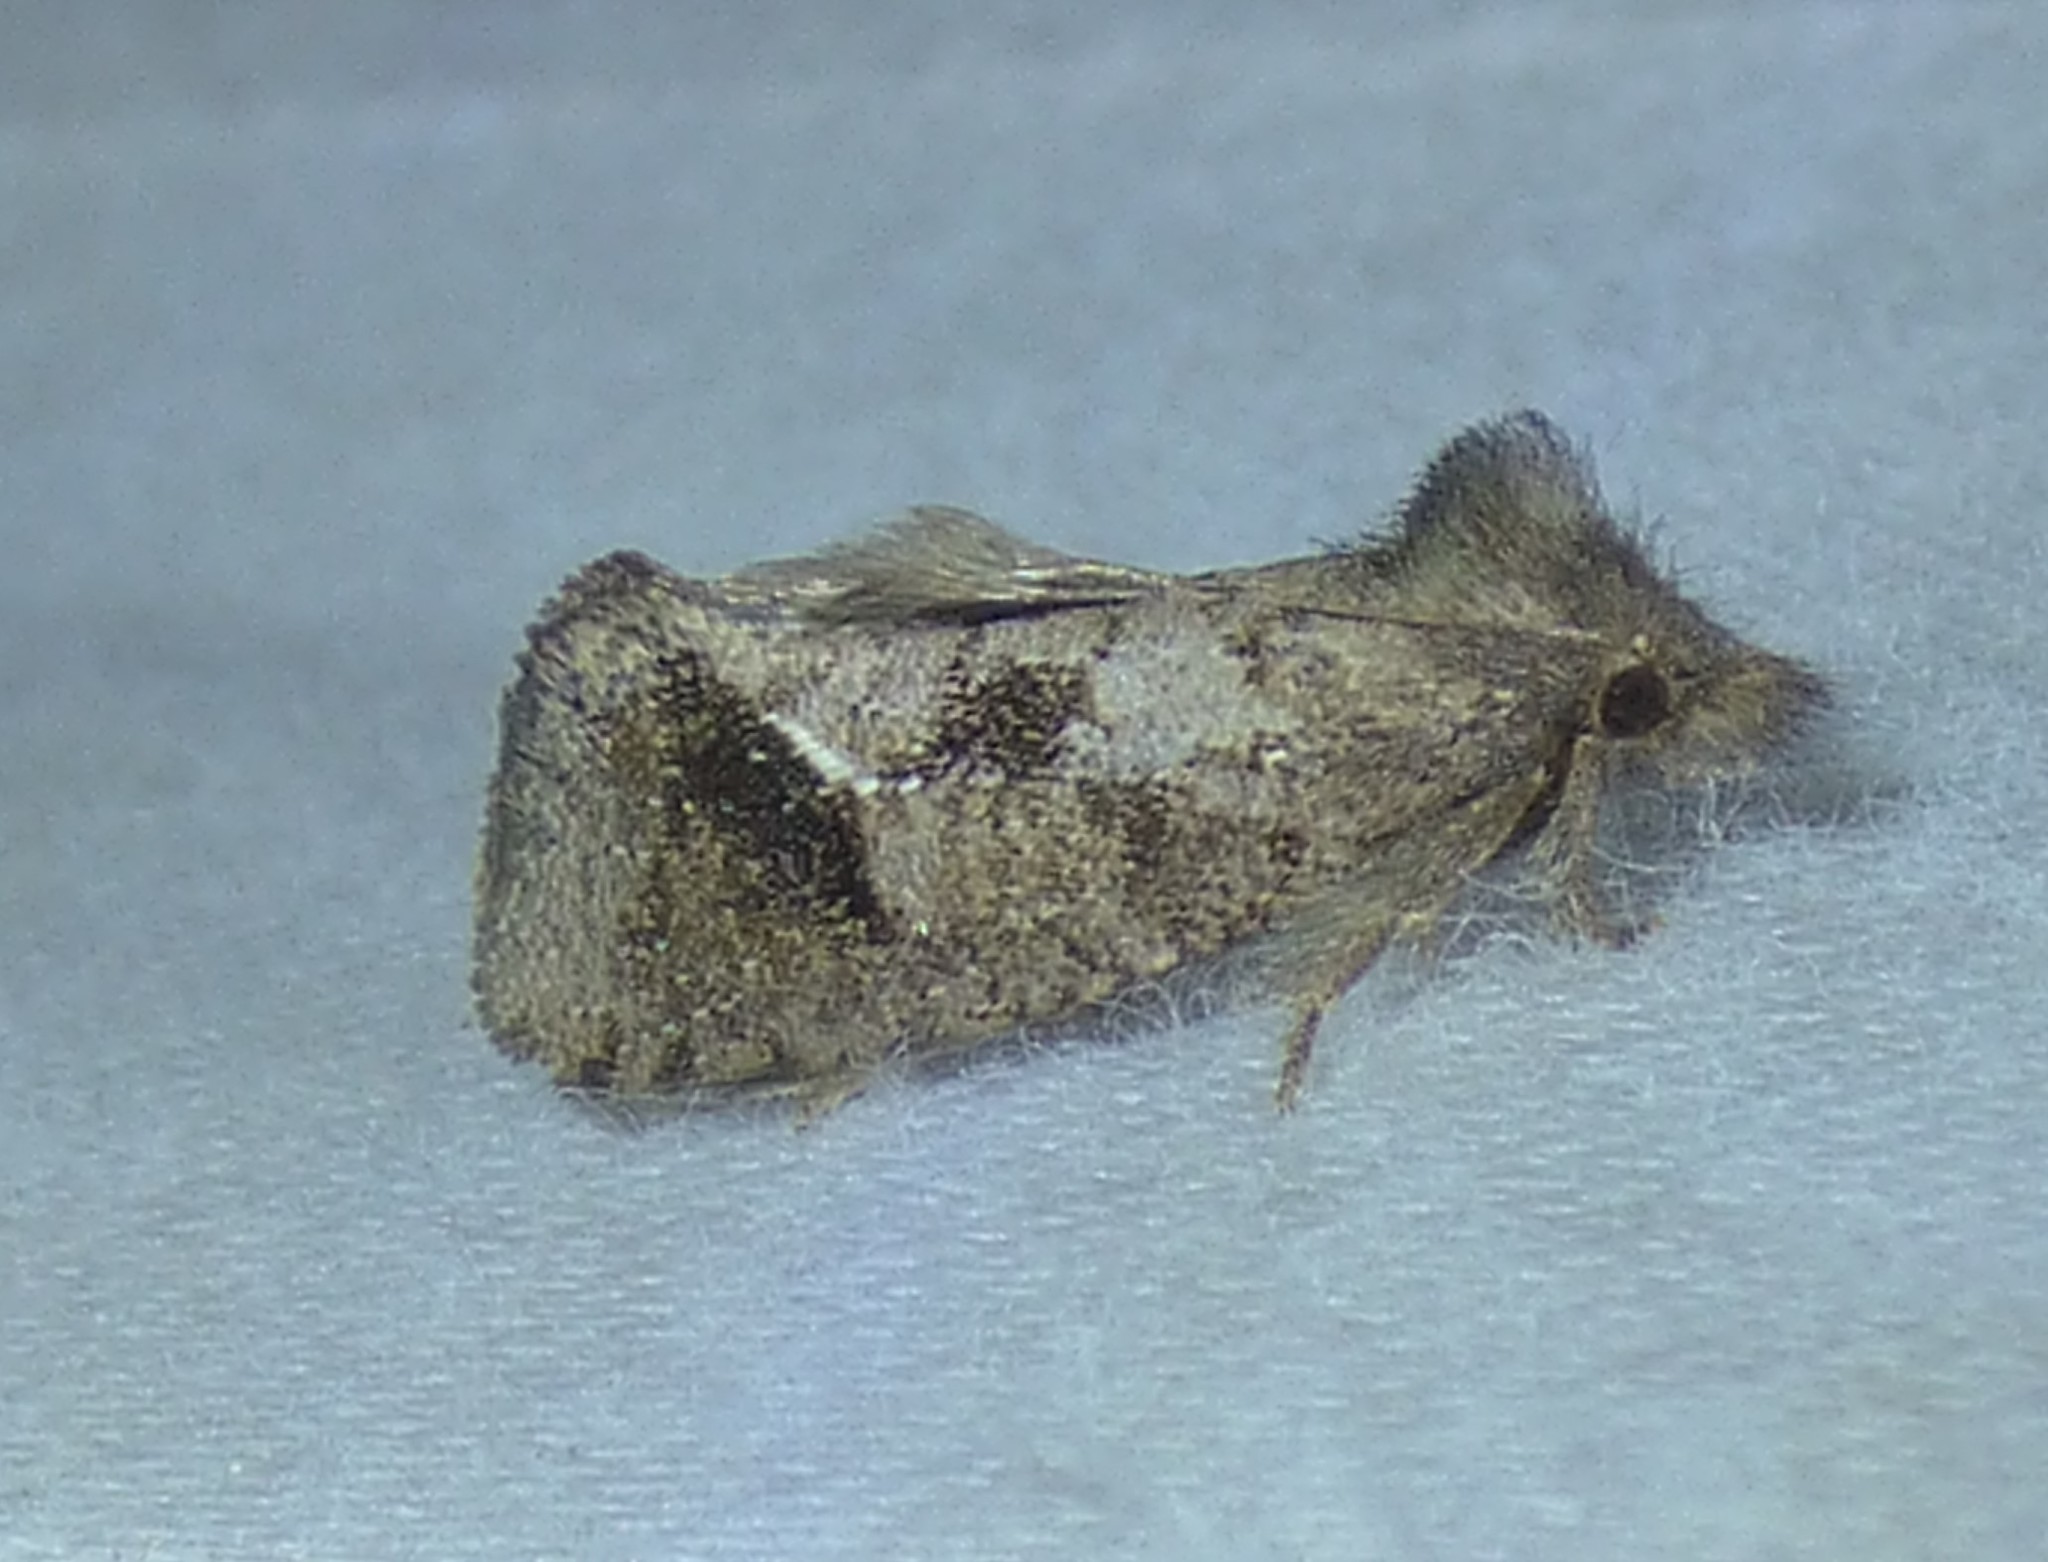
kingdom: Animalia
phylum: Arthropoda
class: Insecta
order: Lepidoptera
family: Tineidae
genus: Acrolophus
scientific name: Acrolophus texanella
